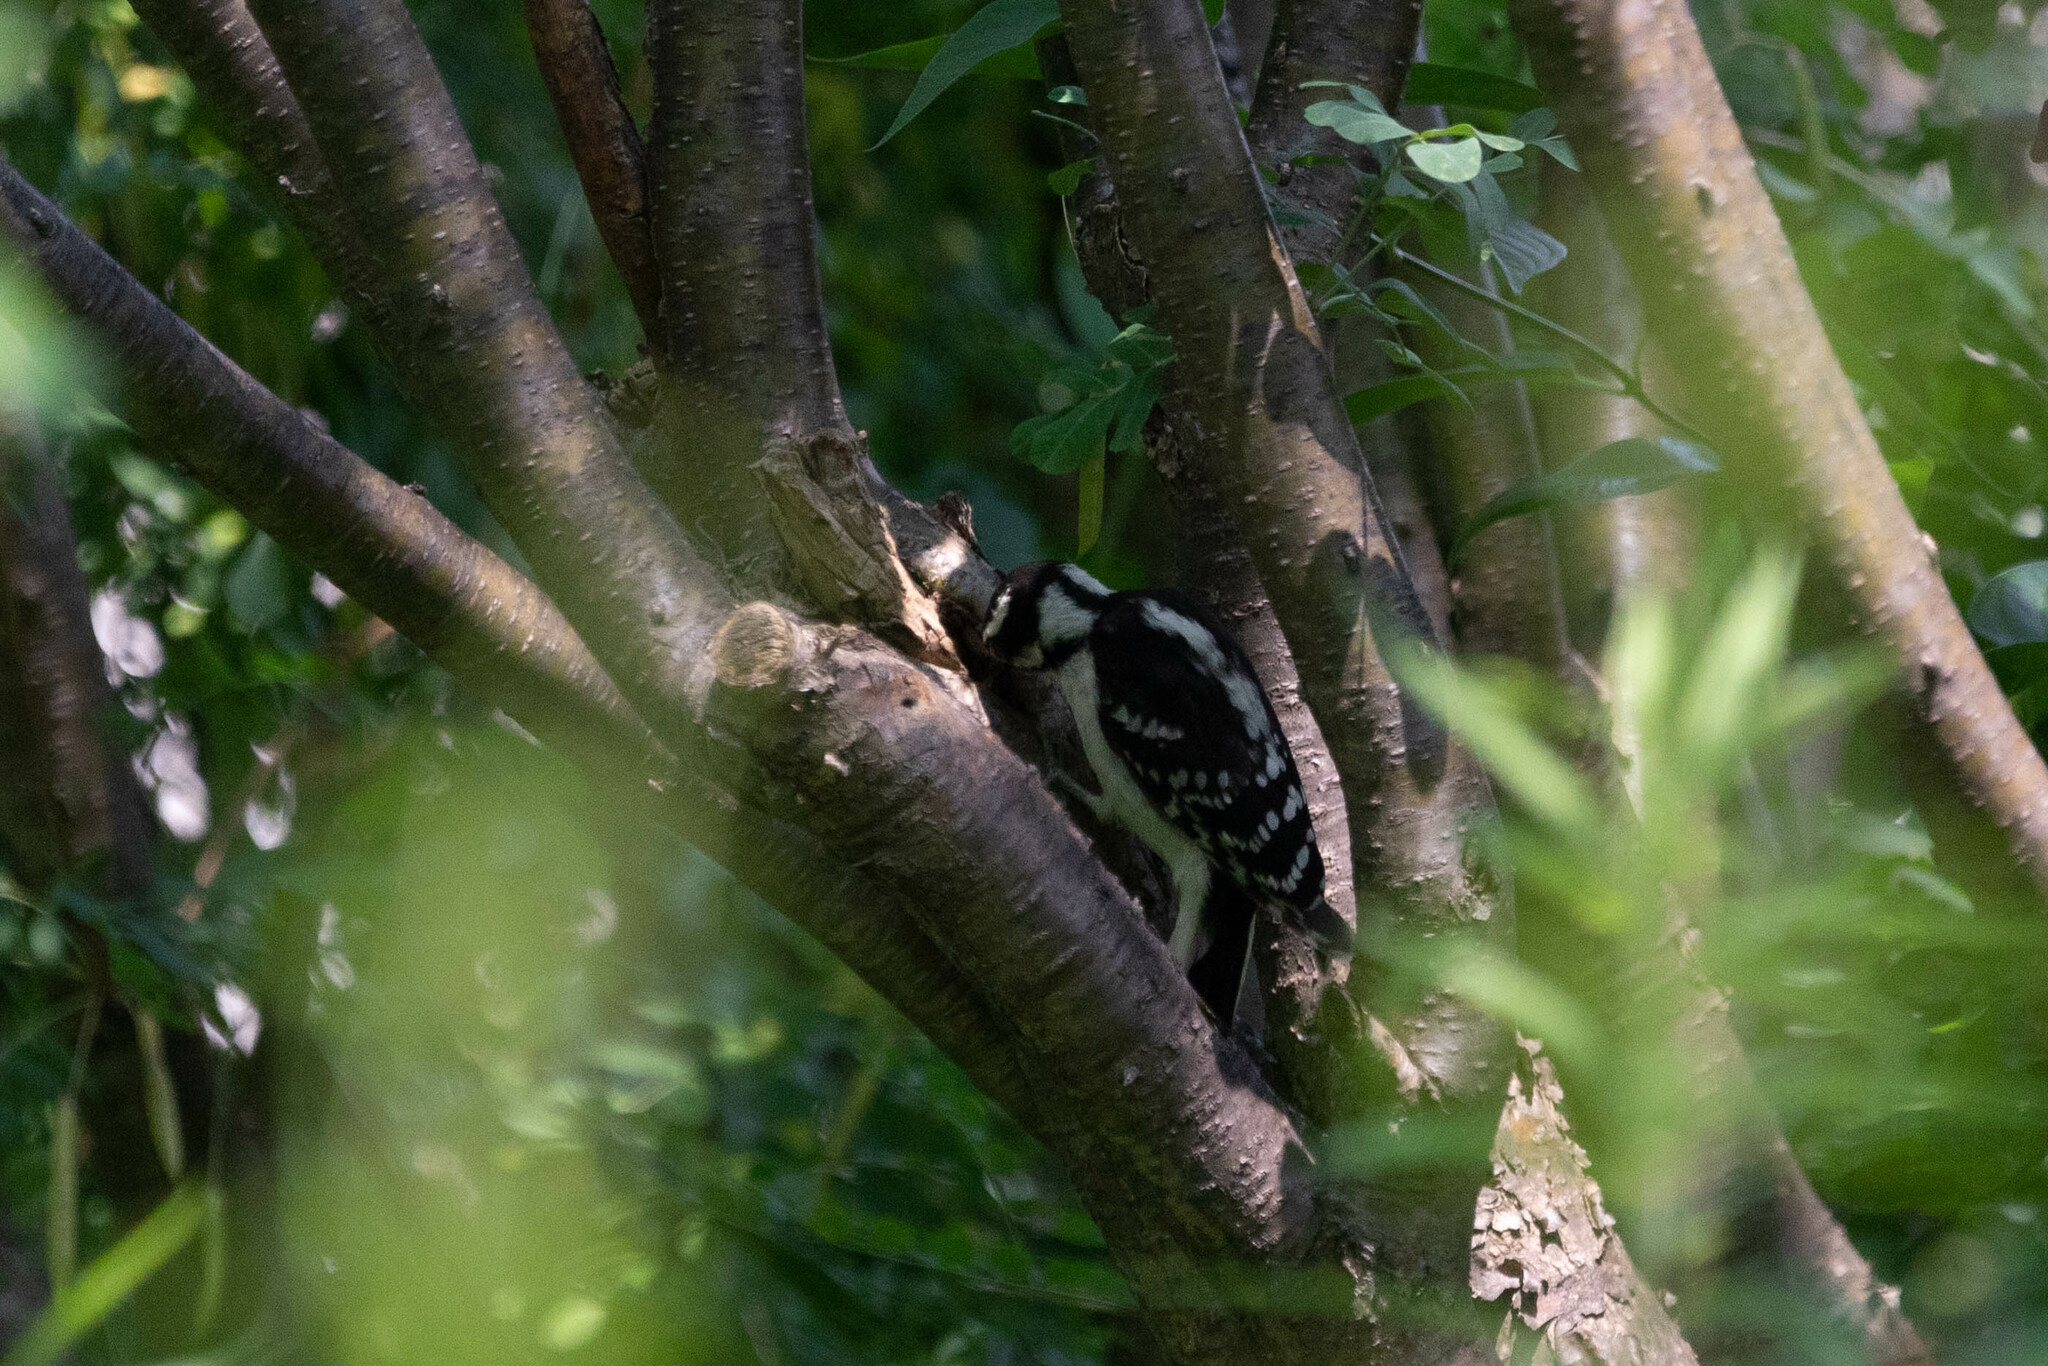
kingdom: Animalia
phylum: Chordata
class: Aves
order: Piciformes
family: Picidae
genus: Dryobates
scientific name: Dryobates pubescens
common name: Downy woodpecker
